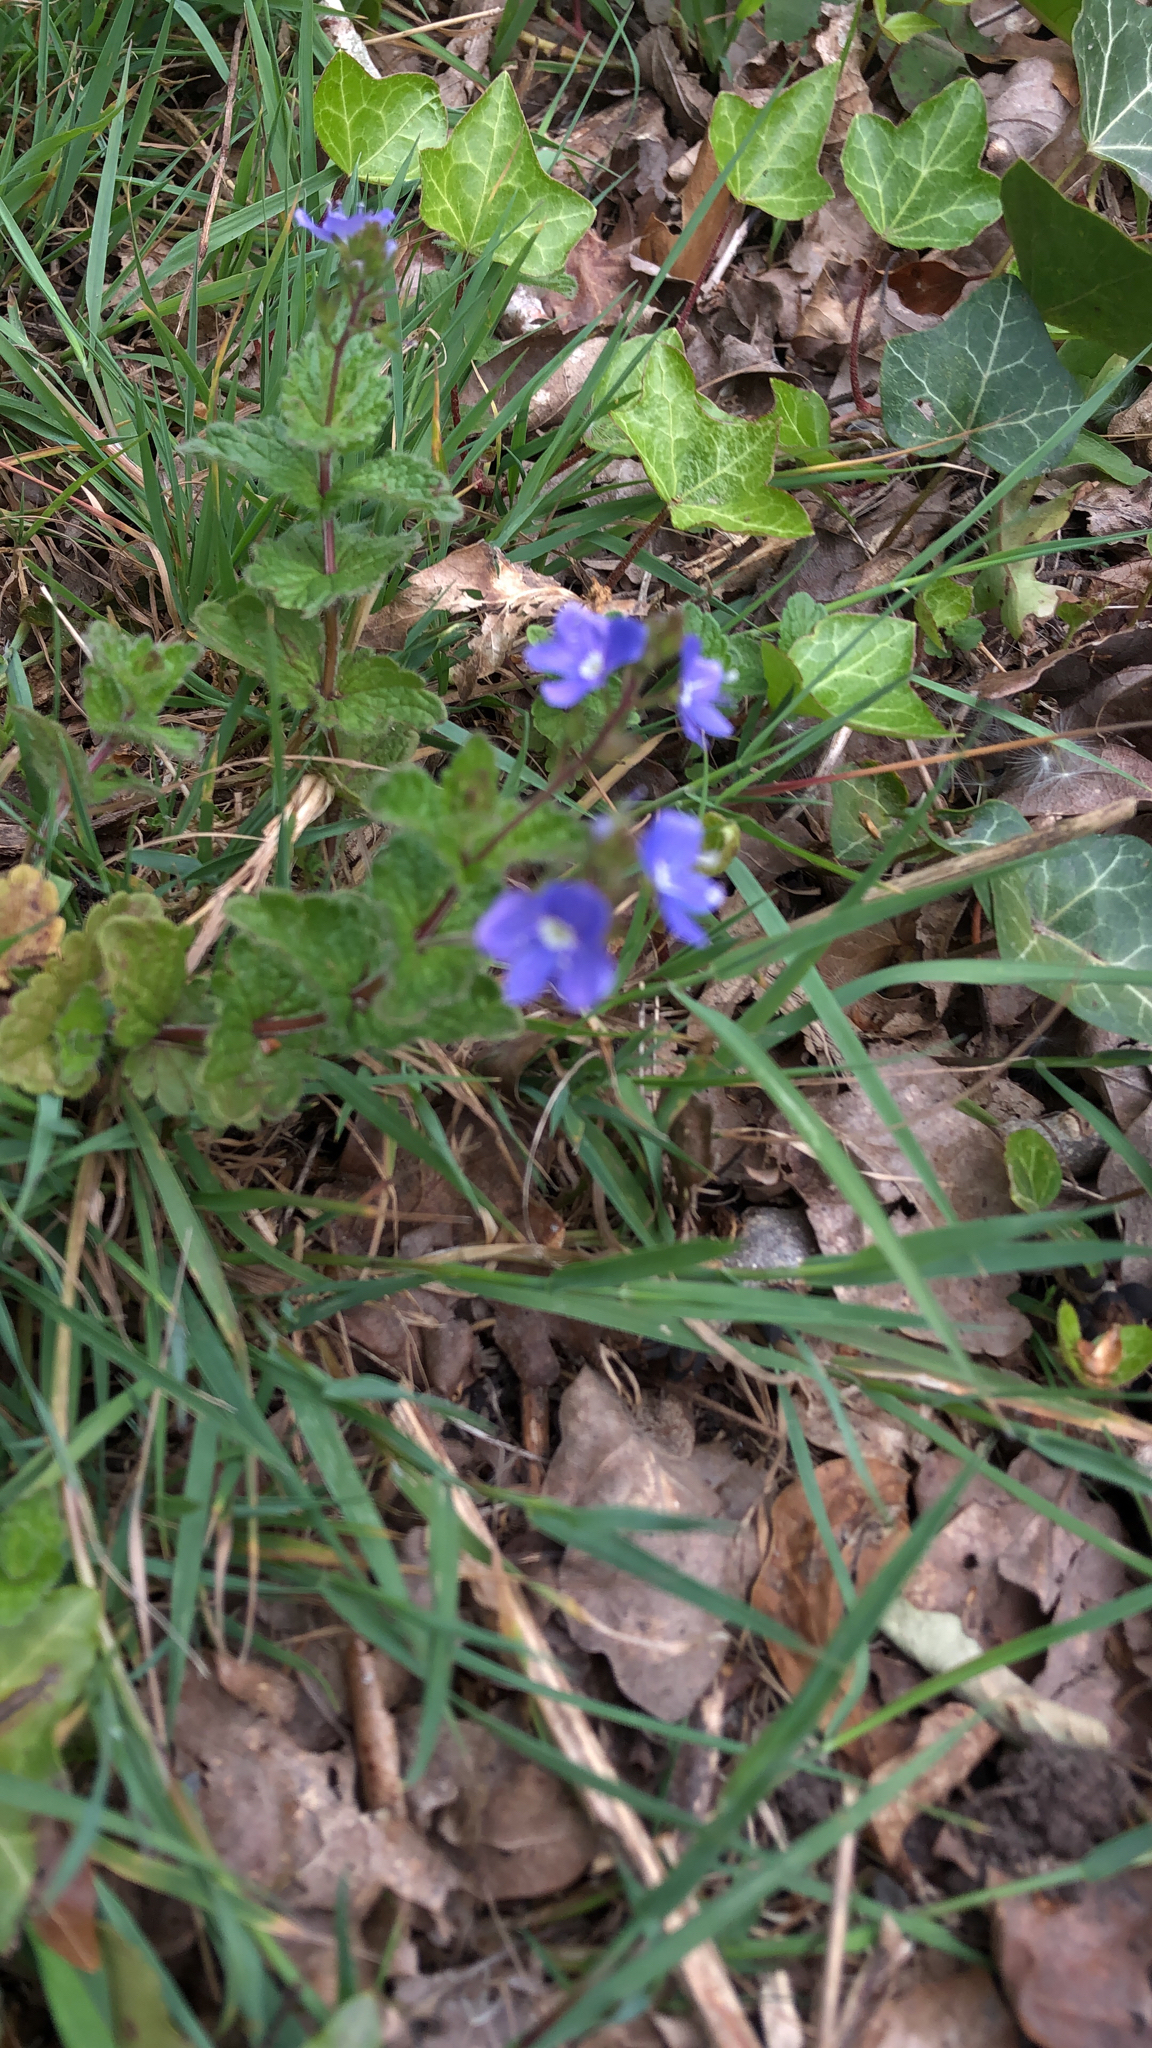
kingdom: Plantae
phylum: Tracheophyta
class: Magnoliopsida
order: Lamiales
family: Plantaginaceae
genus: Veronica
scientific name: Veronica chamaedrys
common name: Germander speedwell
